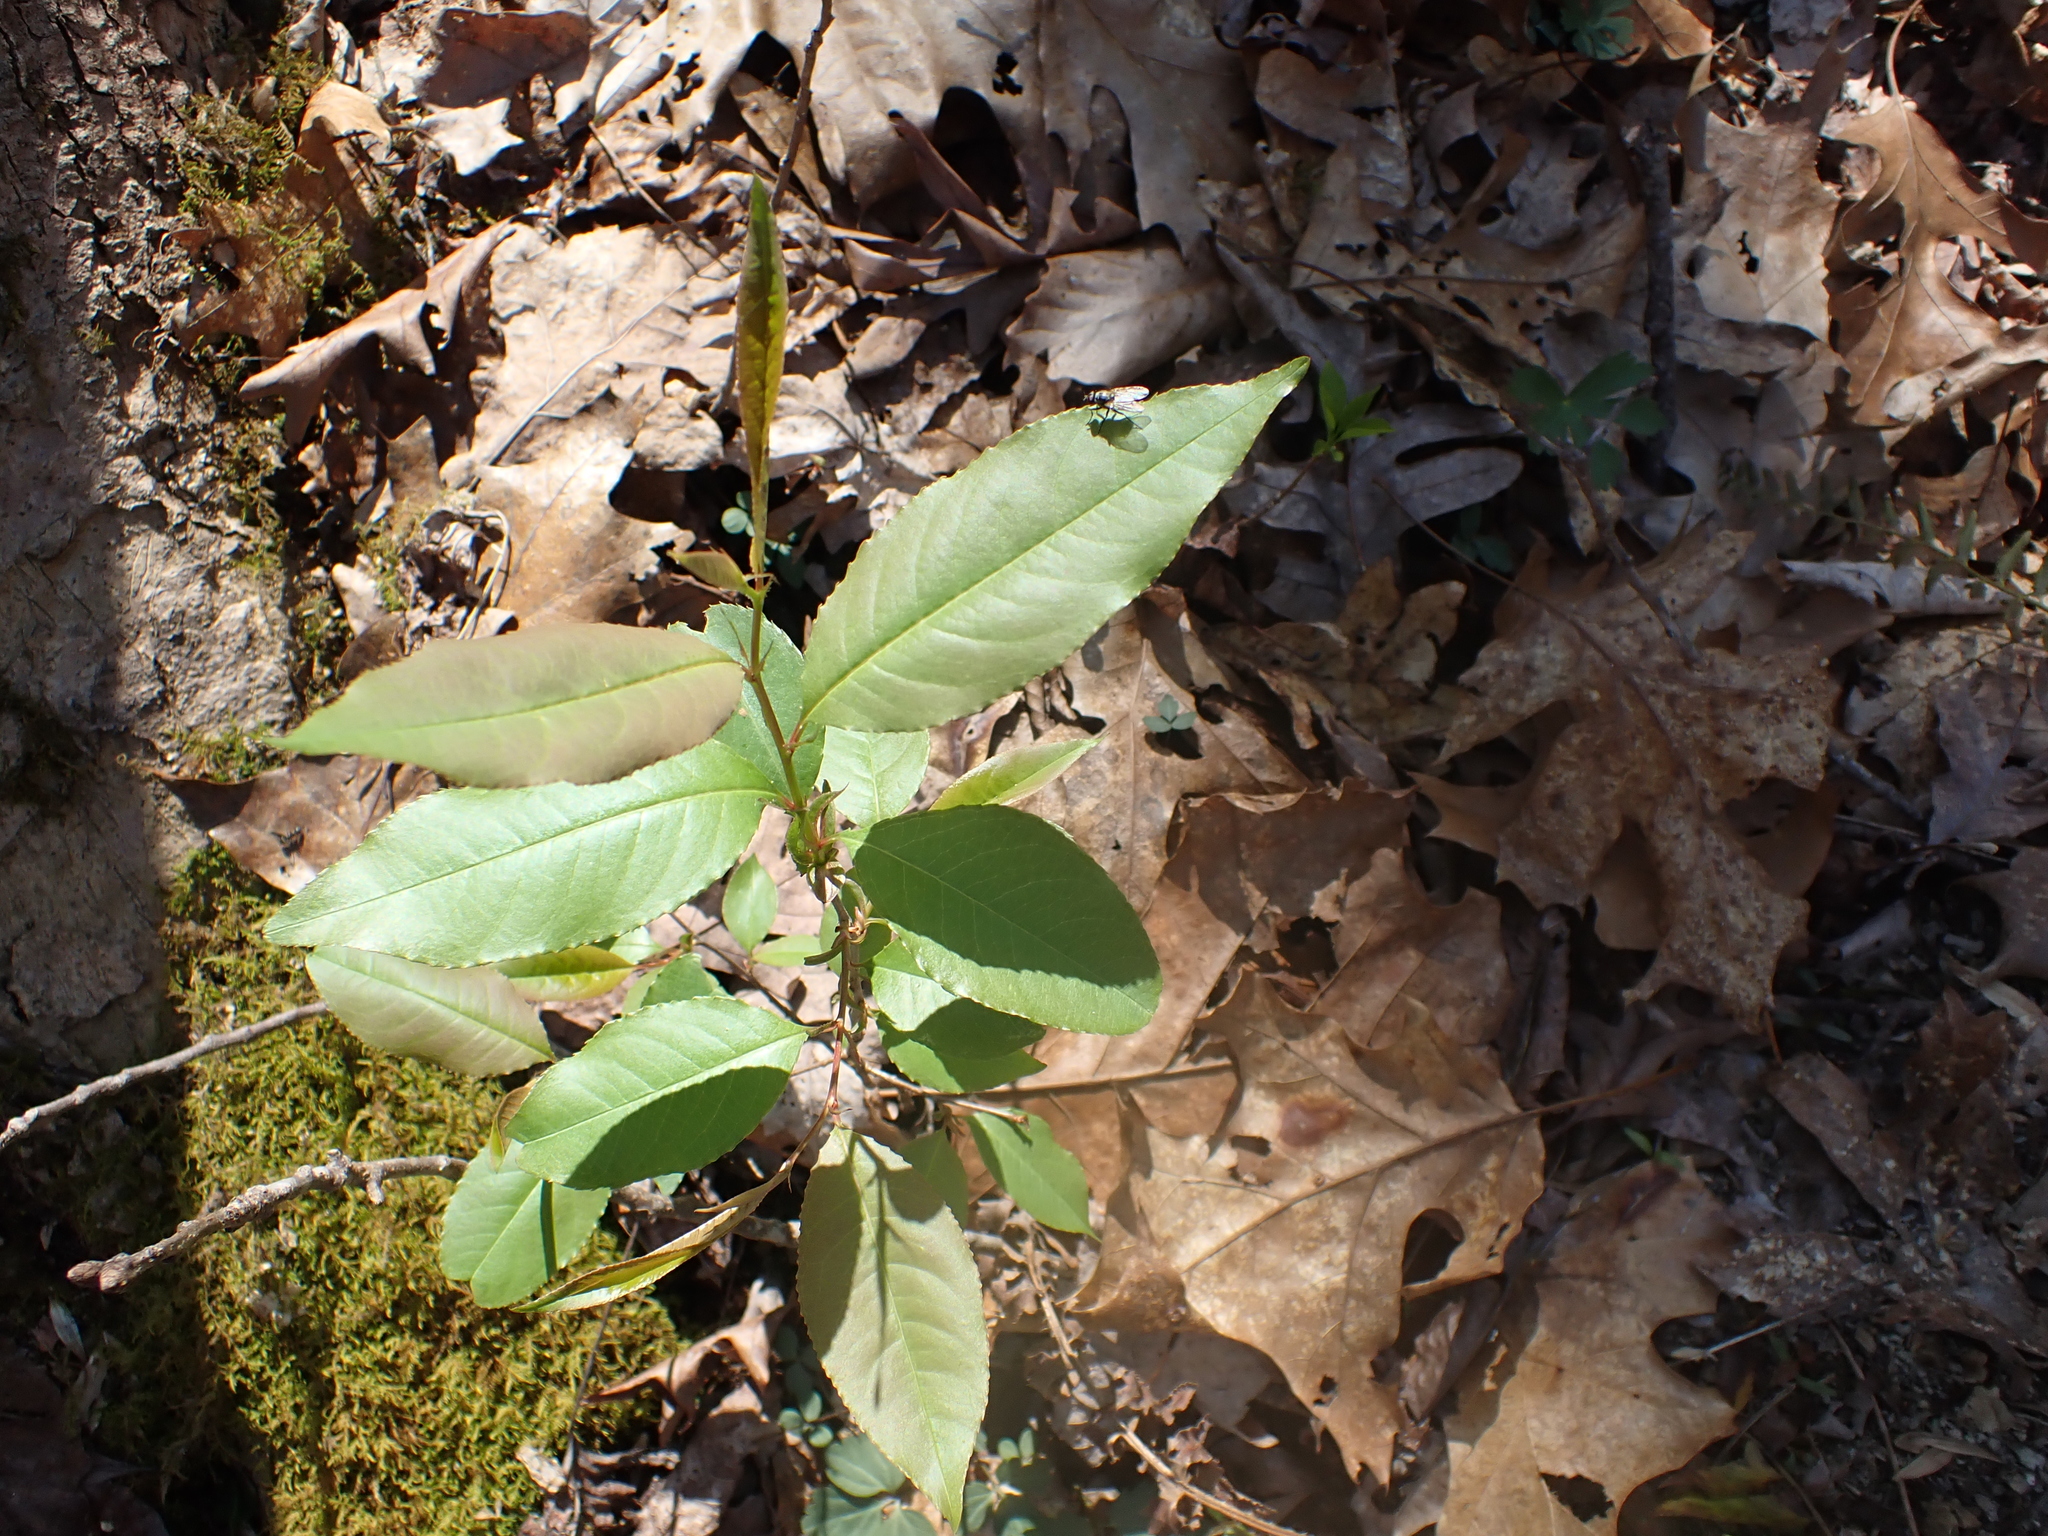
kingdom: Plantae
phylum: Tracheophyta
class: Magnoliopsida
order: Rosales
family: Rosaceae
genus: Prunus
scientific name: Prunus serotina
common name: Black cherry
